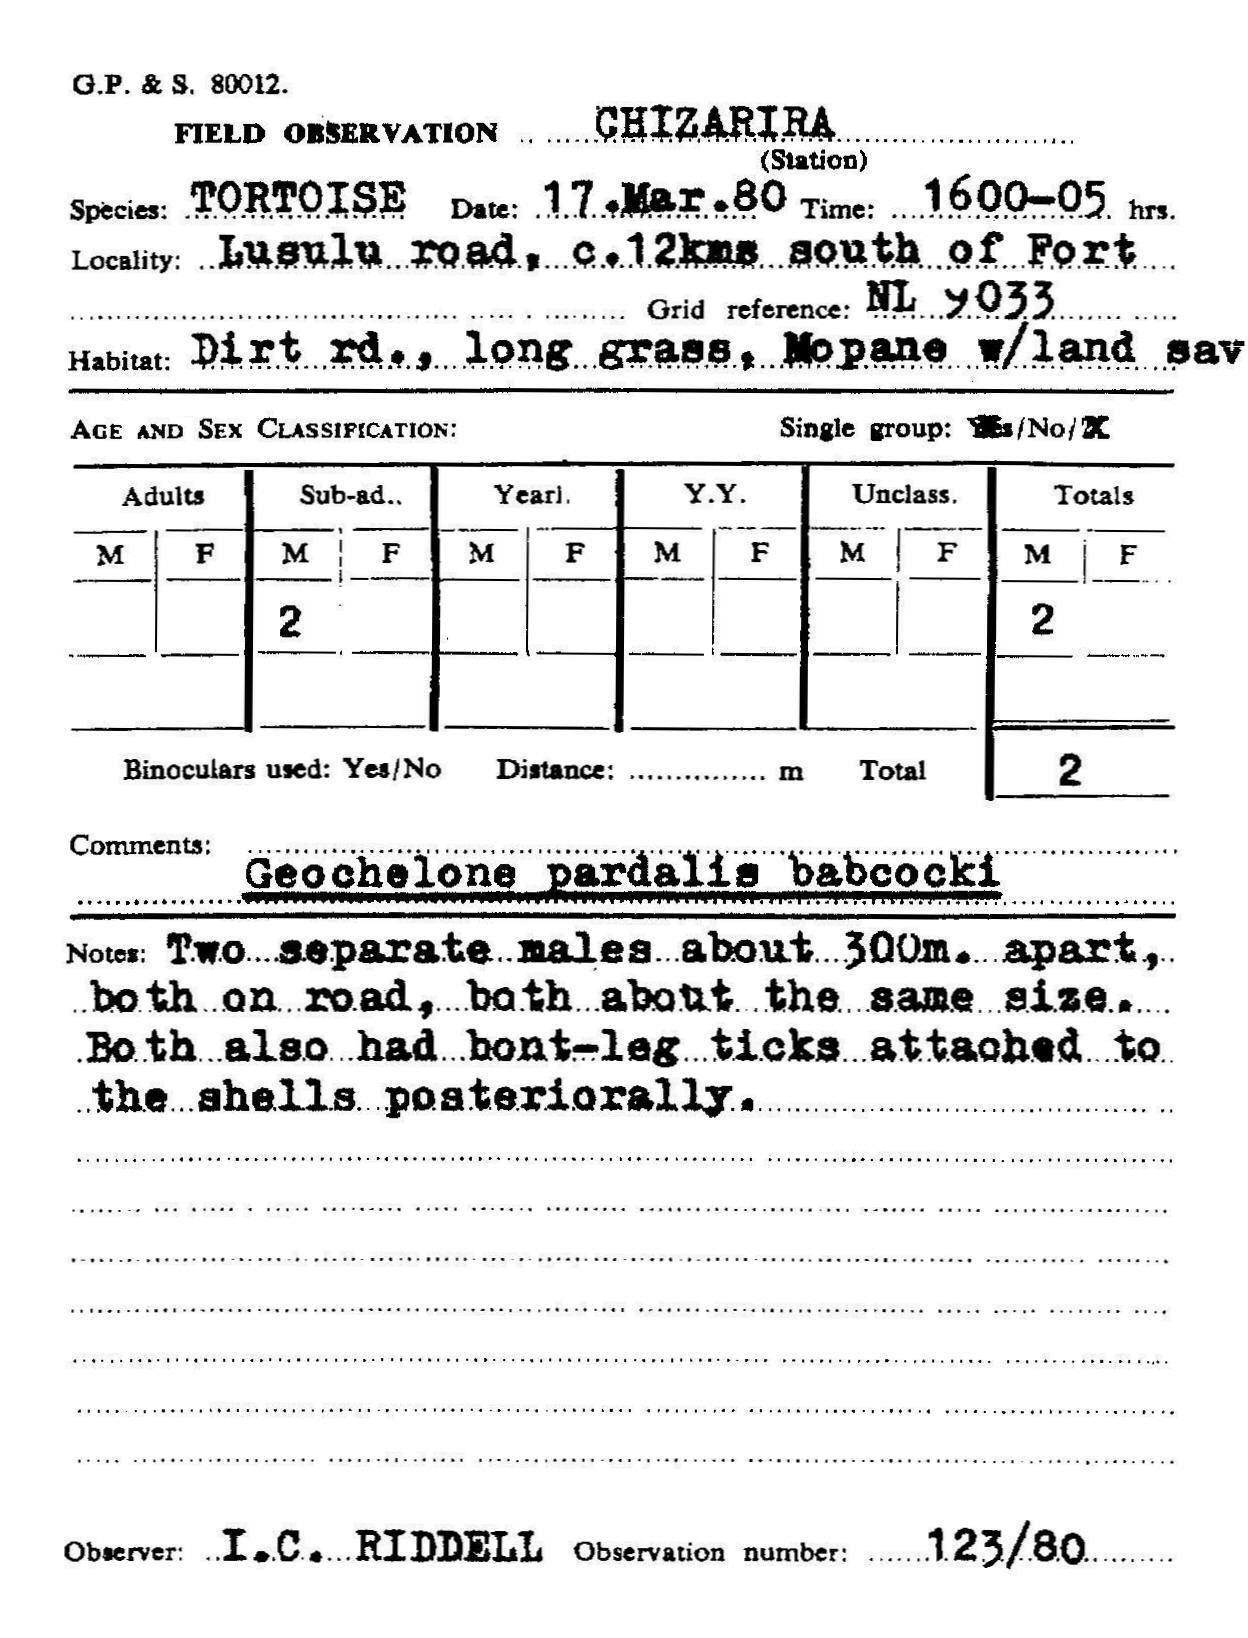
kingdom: Animalia
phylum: Chordata
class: Testudines
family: Testudinidae
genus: Stigmochelys
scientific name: Stigmochelys pardalis
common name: Leopard tortoise
